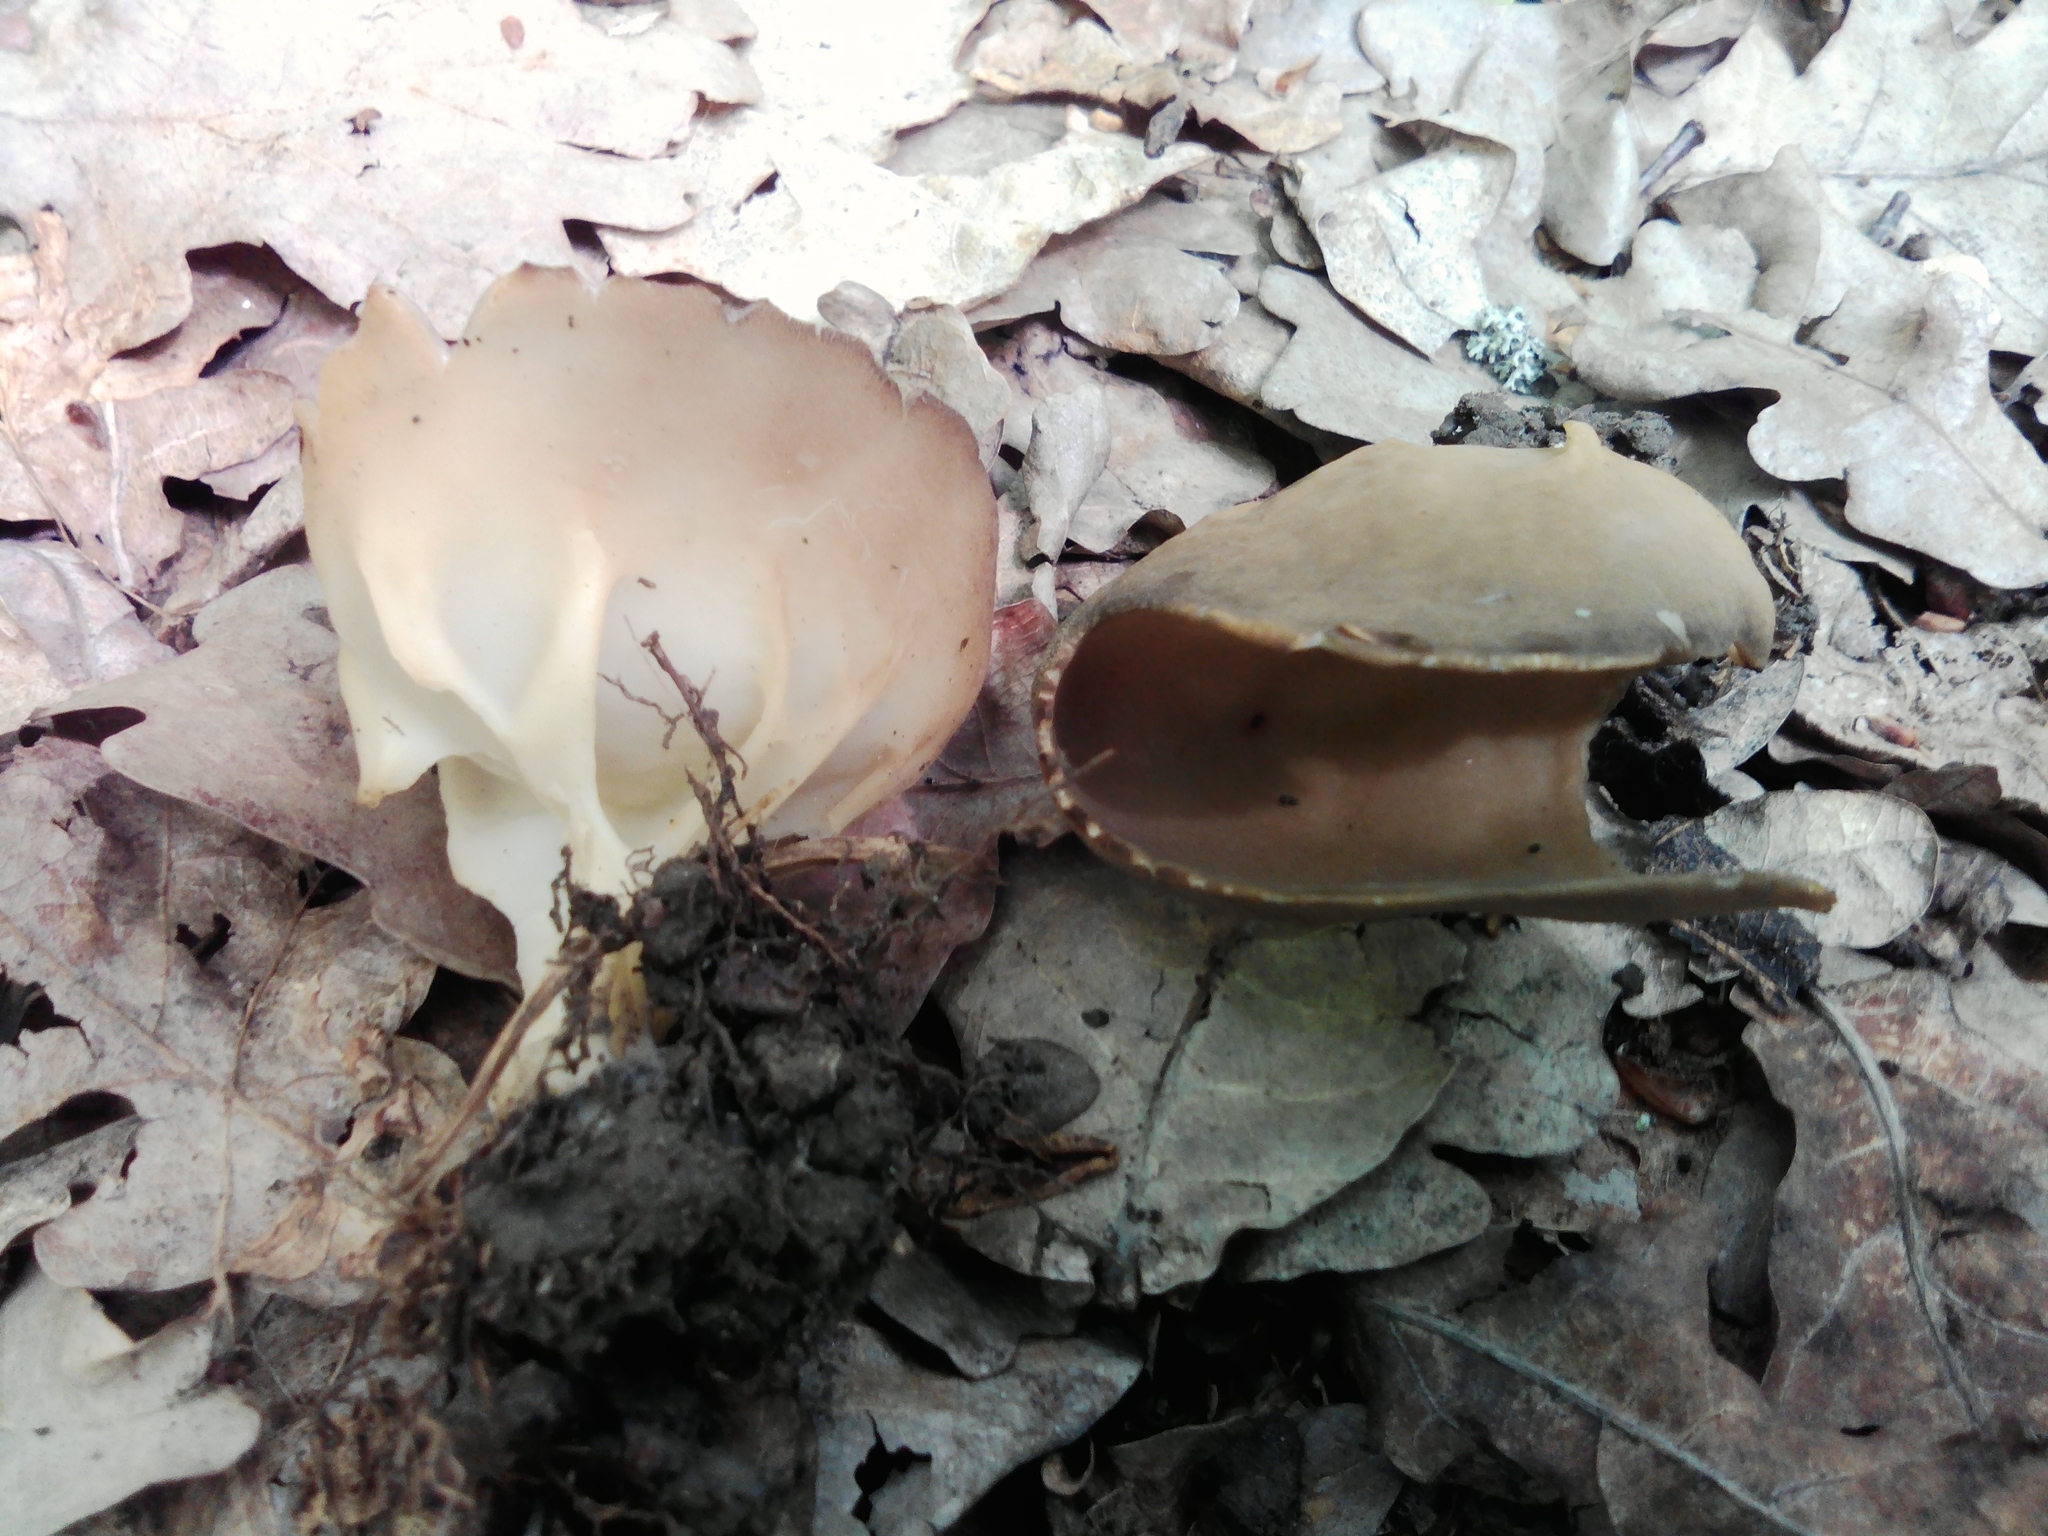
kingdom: Fungi
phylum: Ascomycota
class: Pezizomycetes
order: Pezizales
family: Helvellaceae
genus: Helvella
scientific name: Helvella acetabulum
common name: Vinegar cup
